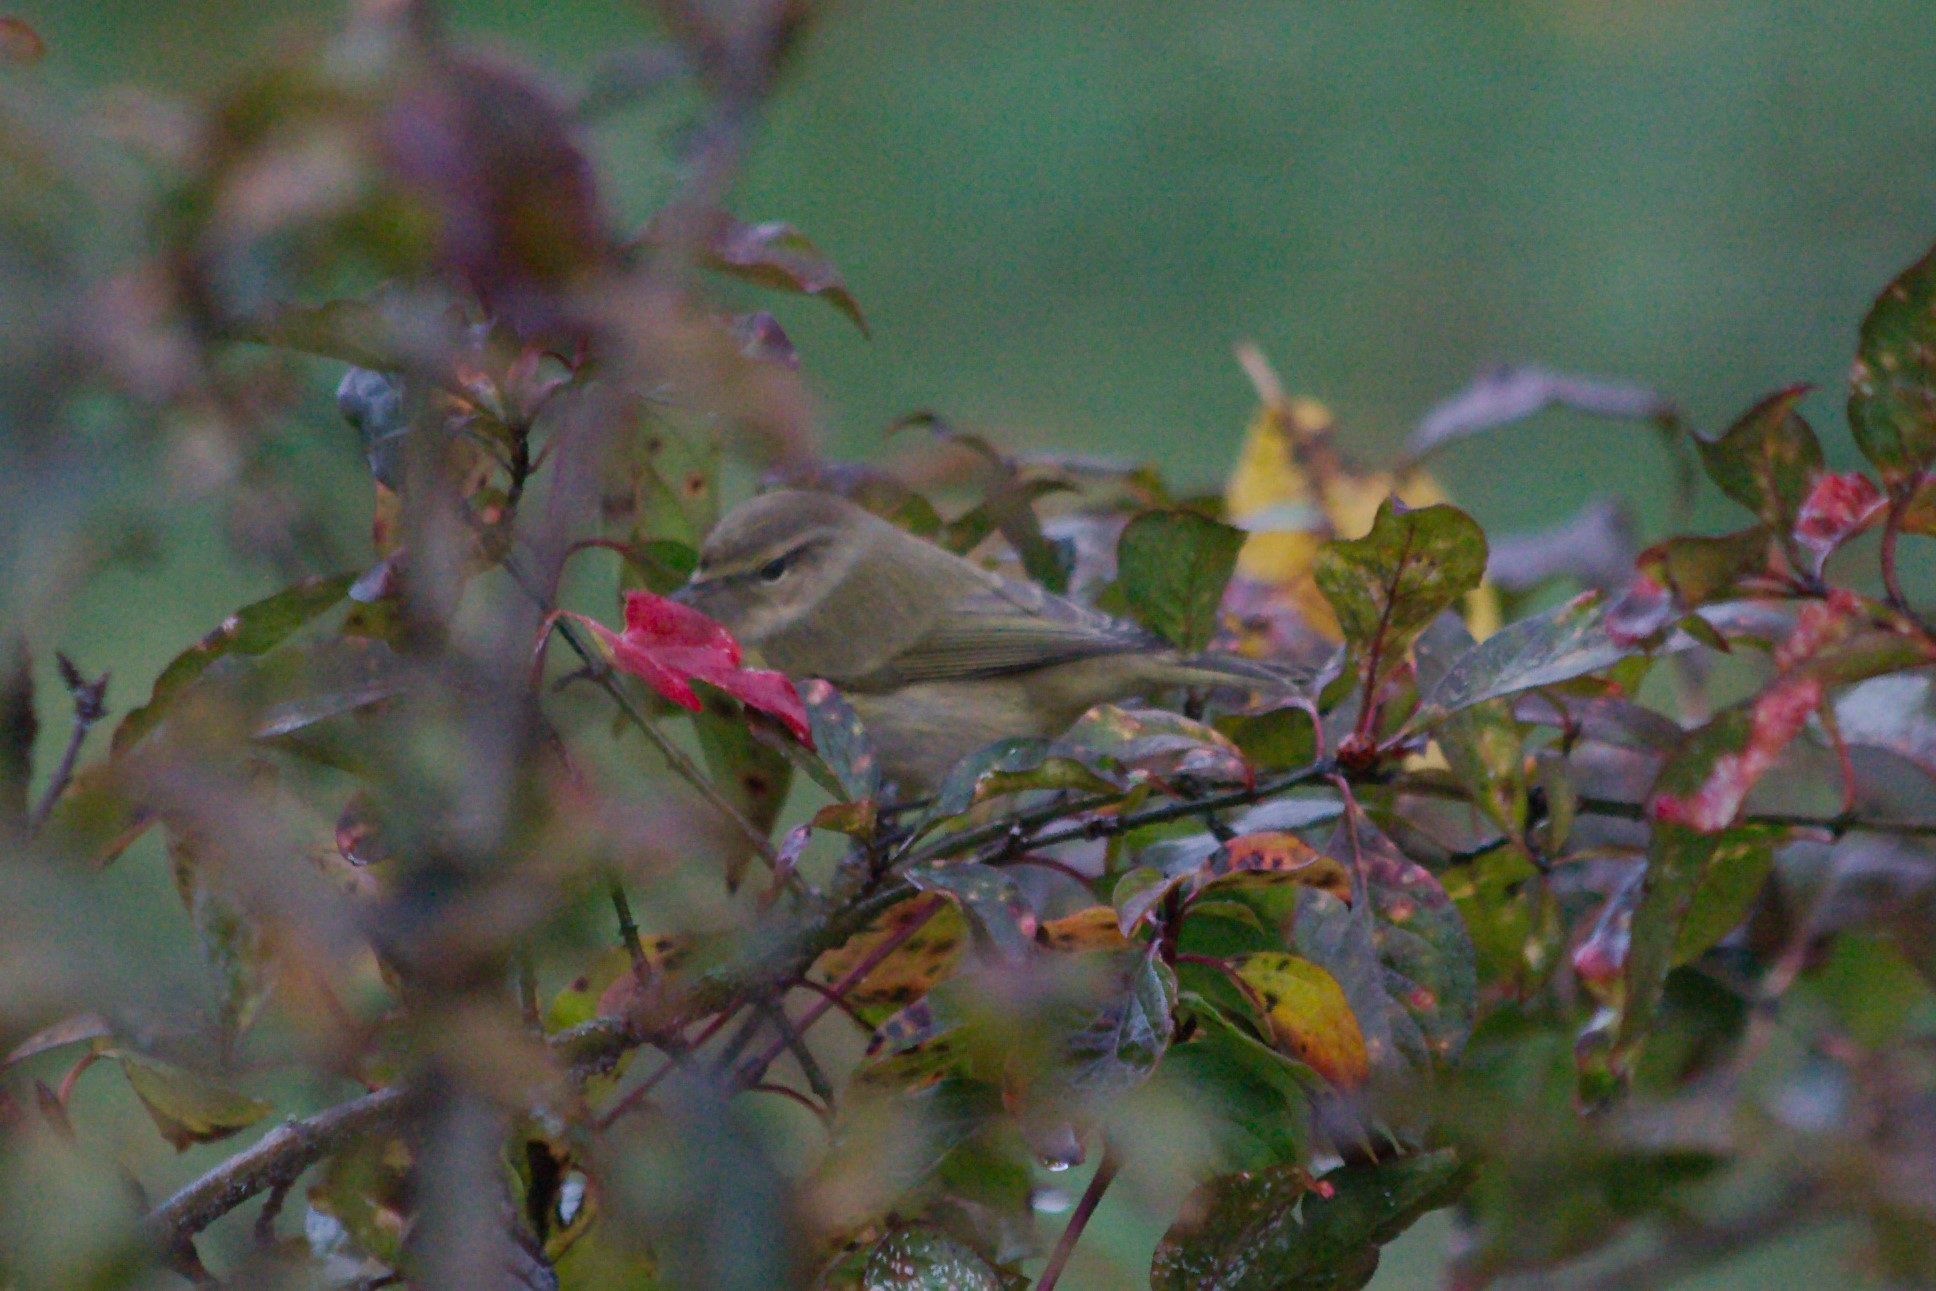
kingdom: Animalia
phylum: Chordata
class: Aves
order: Passeriformes
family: Phylloscopidae
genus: Phylloscopus
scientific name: Phylloscopus collybita
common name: Common chiffchaff
